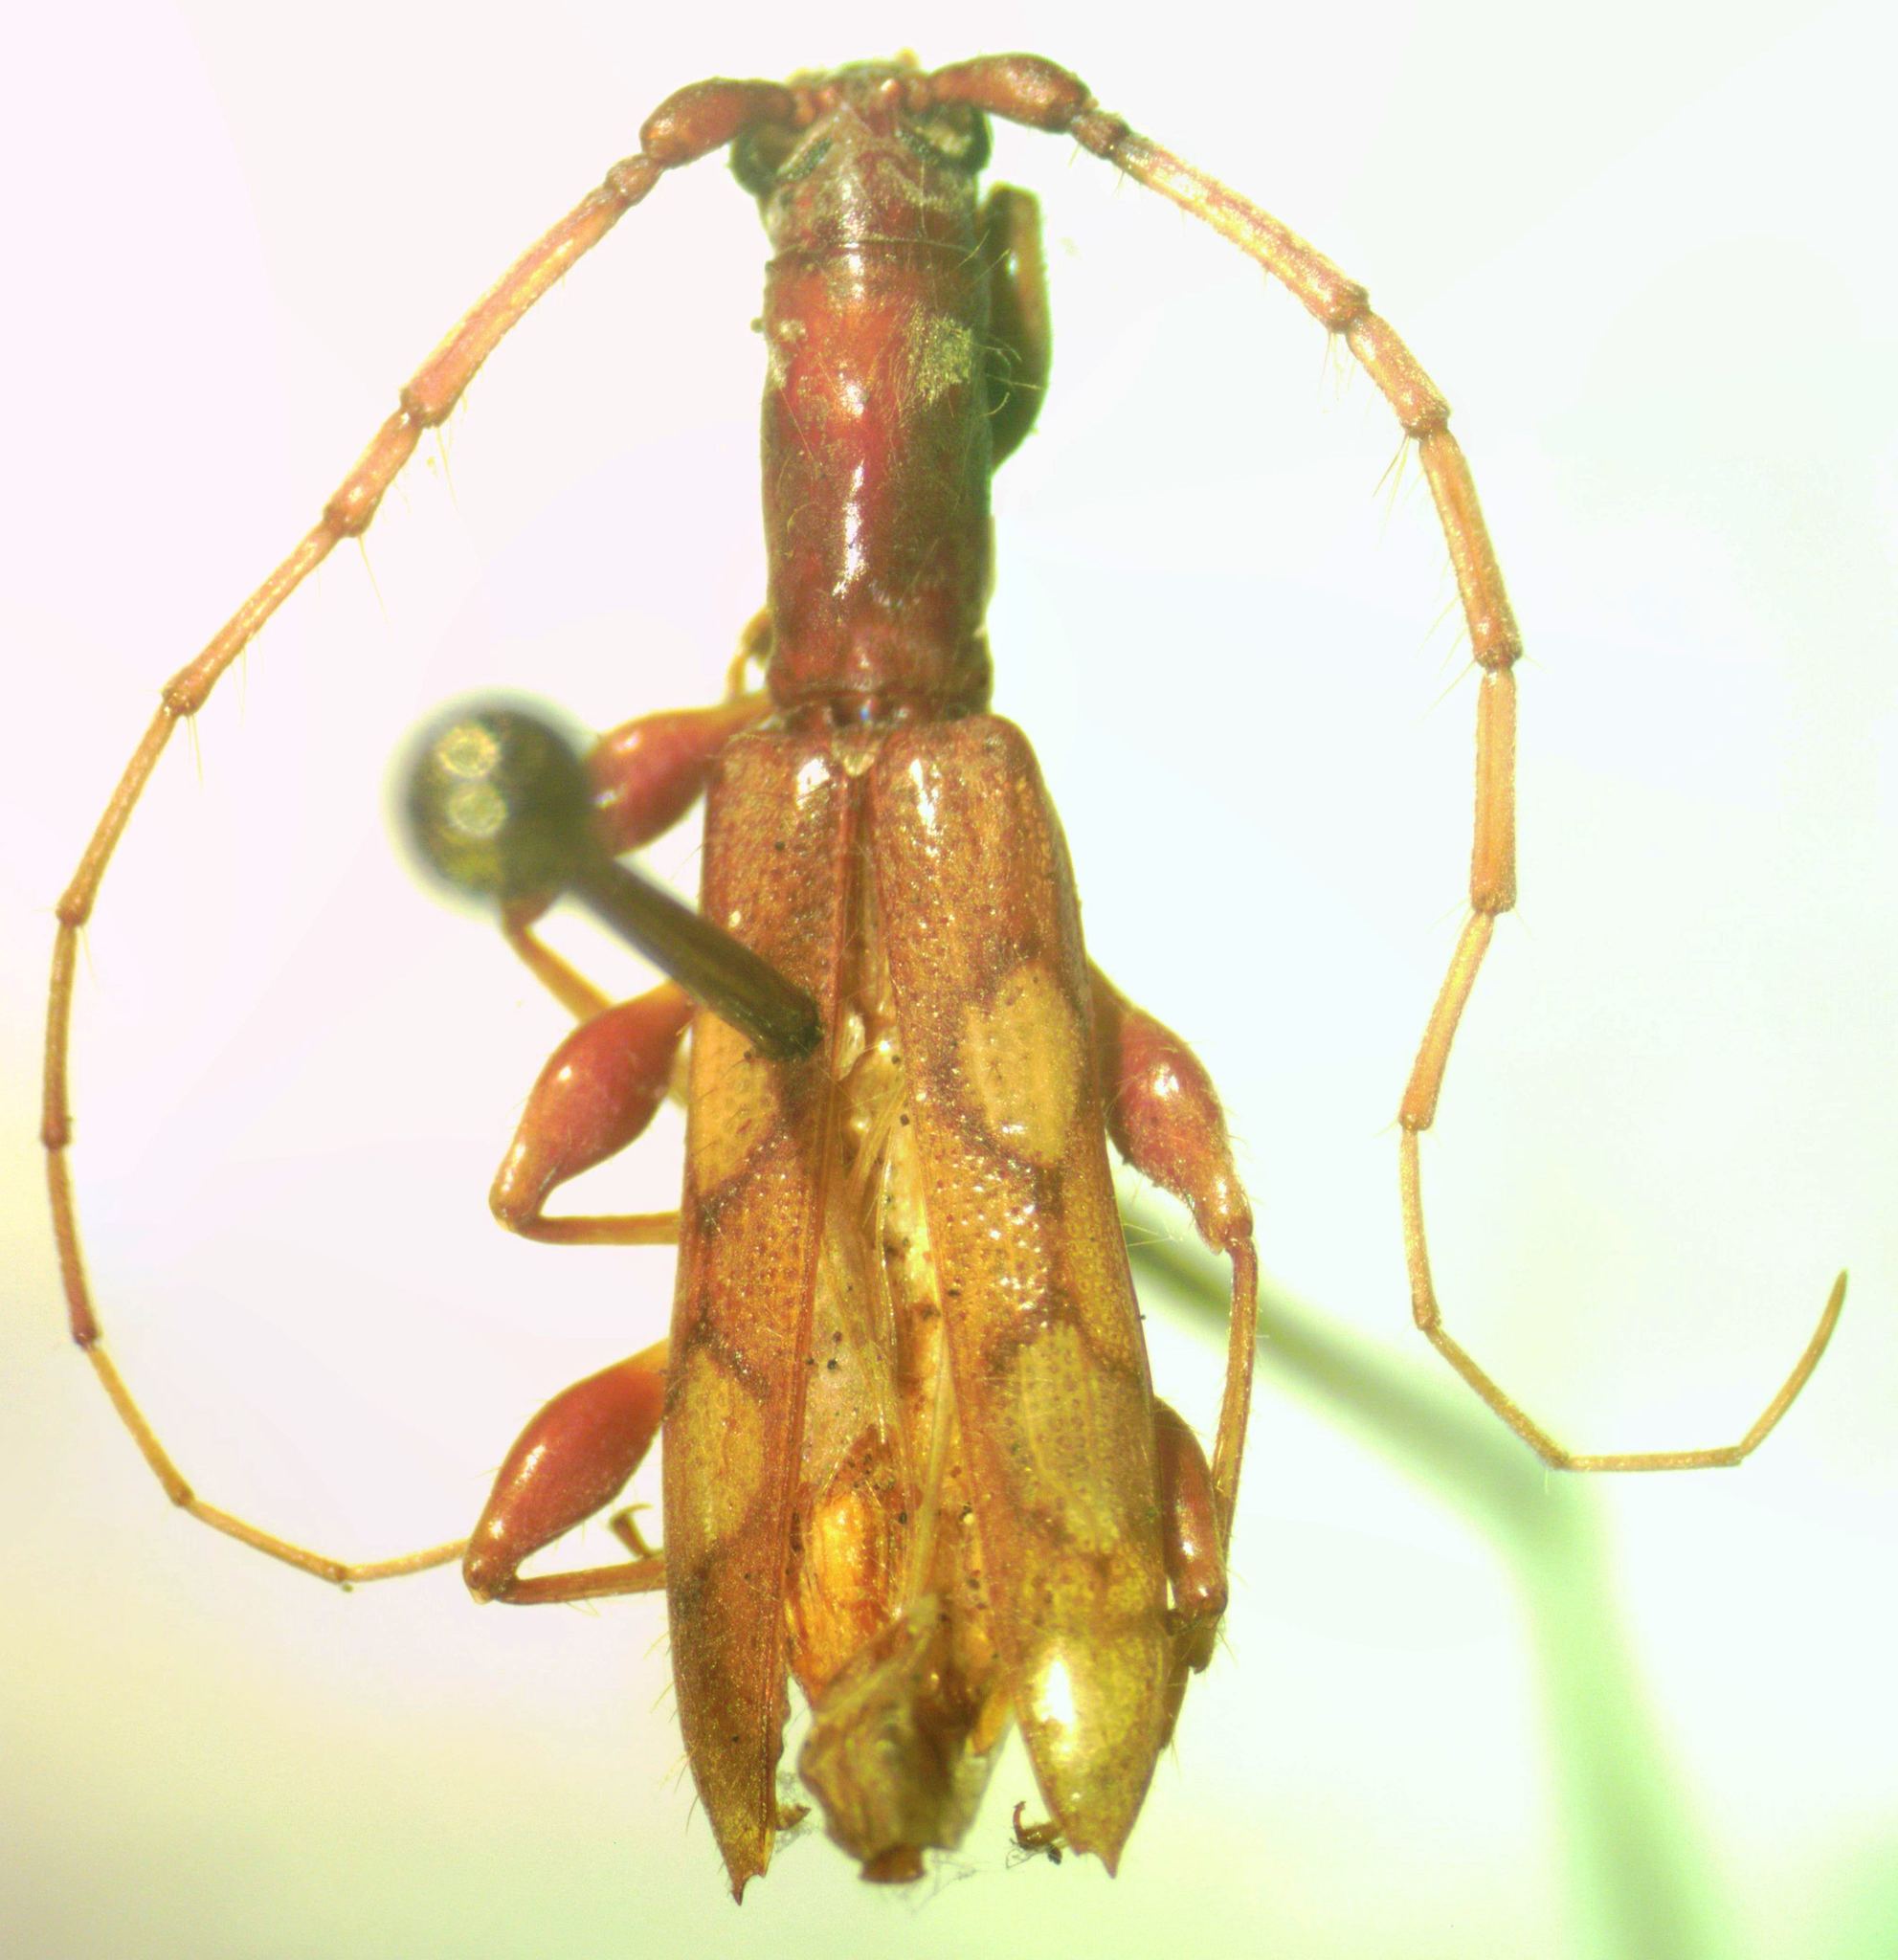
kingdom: Animalia
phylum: Arthropoda
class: Insecta
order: Coleoptera
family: Cerambycidae
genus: Neocompsa
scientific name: Neocompsa squalida
